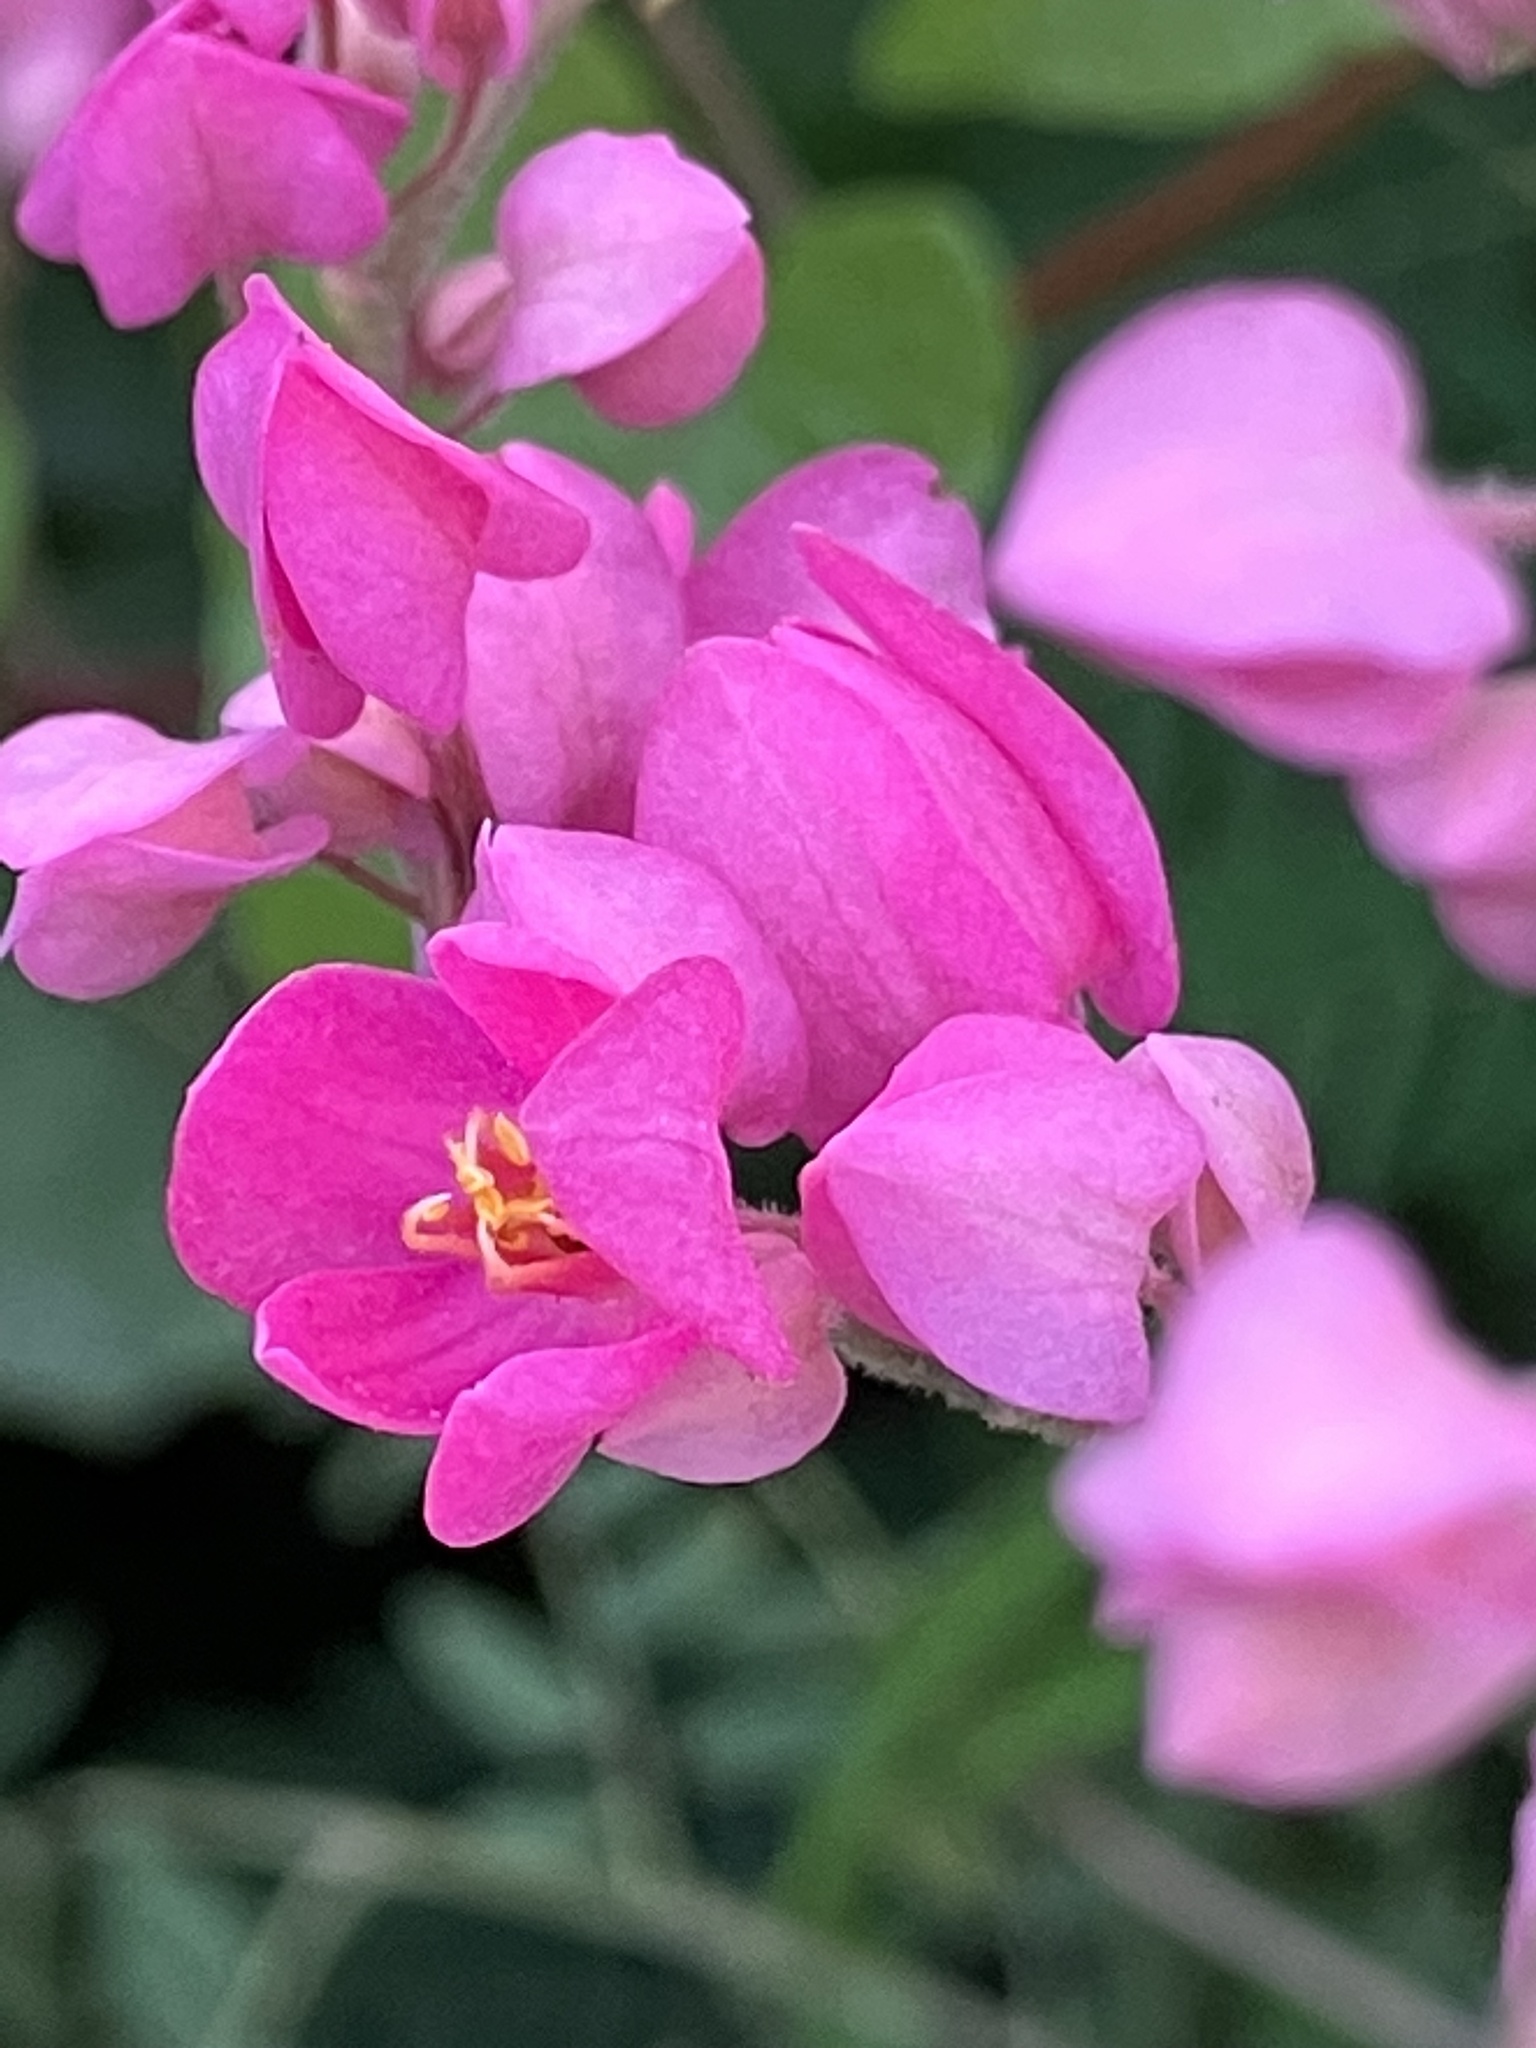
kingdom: Plantae
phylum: Tracheophyta
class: Magnoliopsida
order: Caryophyllales
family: Polygonaceae
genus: Antigonon
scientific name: Antigonon leptopus
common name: Coral vine
